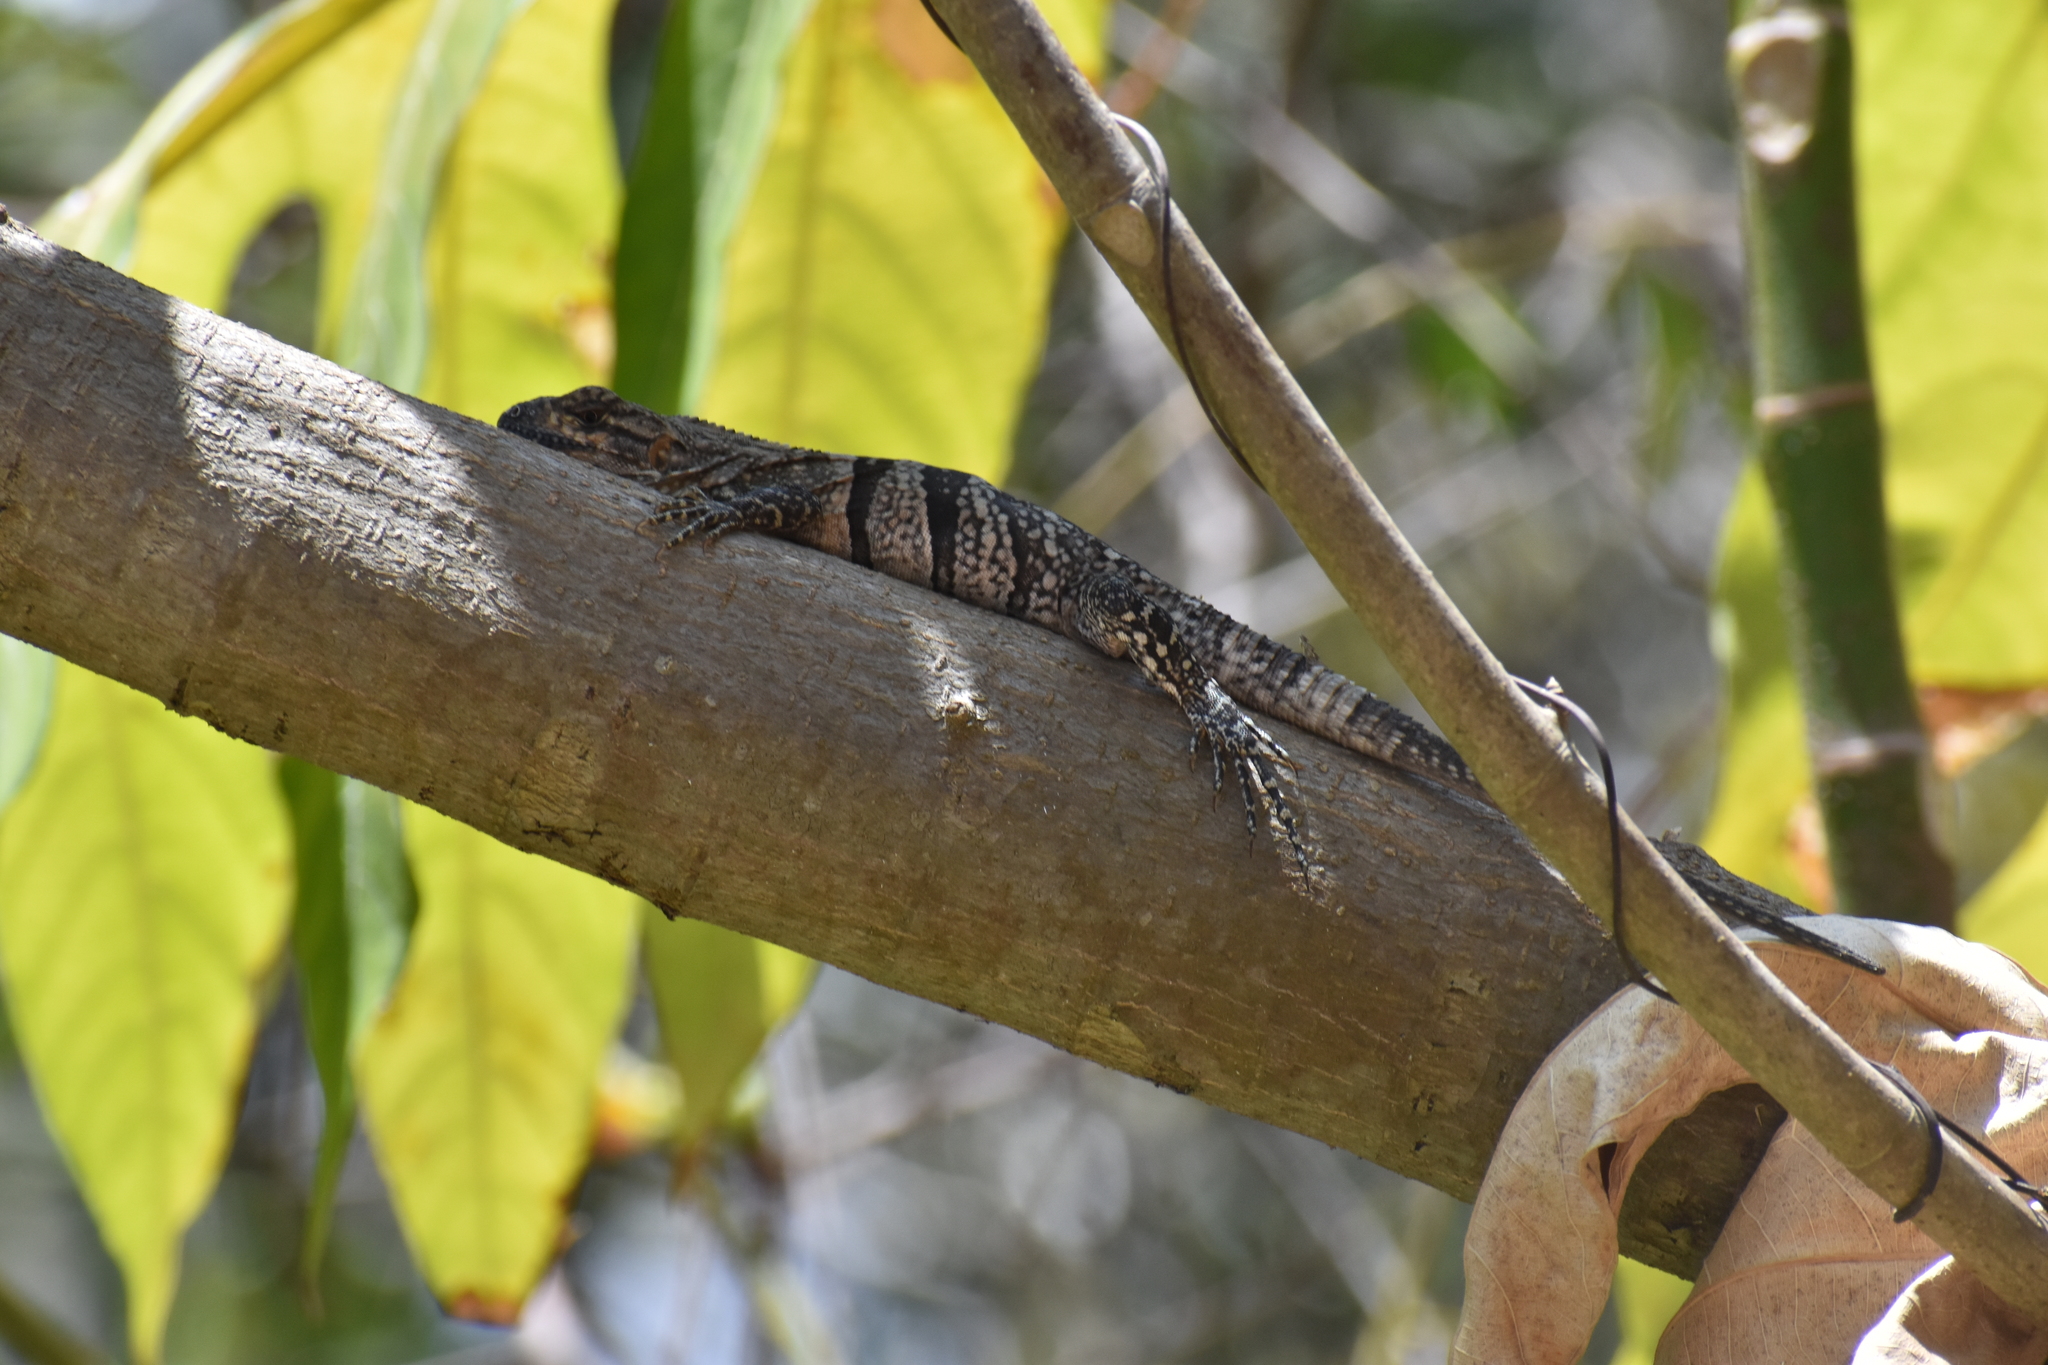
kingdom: Animalia
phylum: Chordata
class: Squamata
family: Iguanidae
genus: Ctenosaura
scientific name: Ctenosaura similis
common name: Black spiny-tailed iguana
